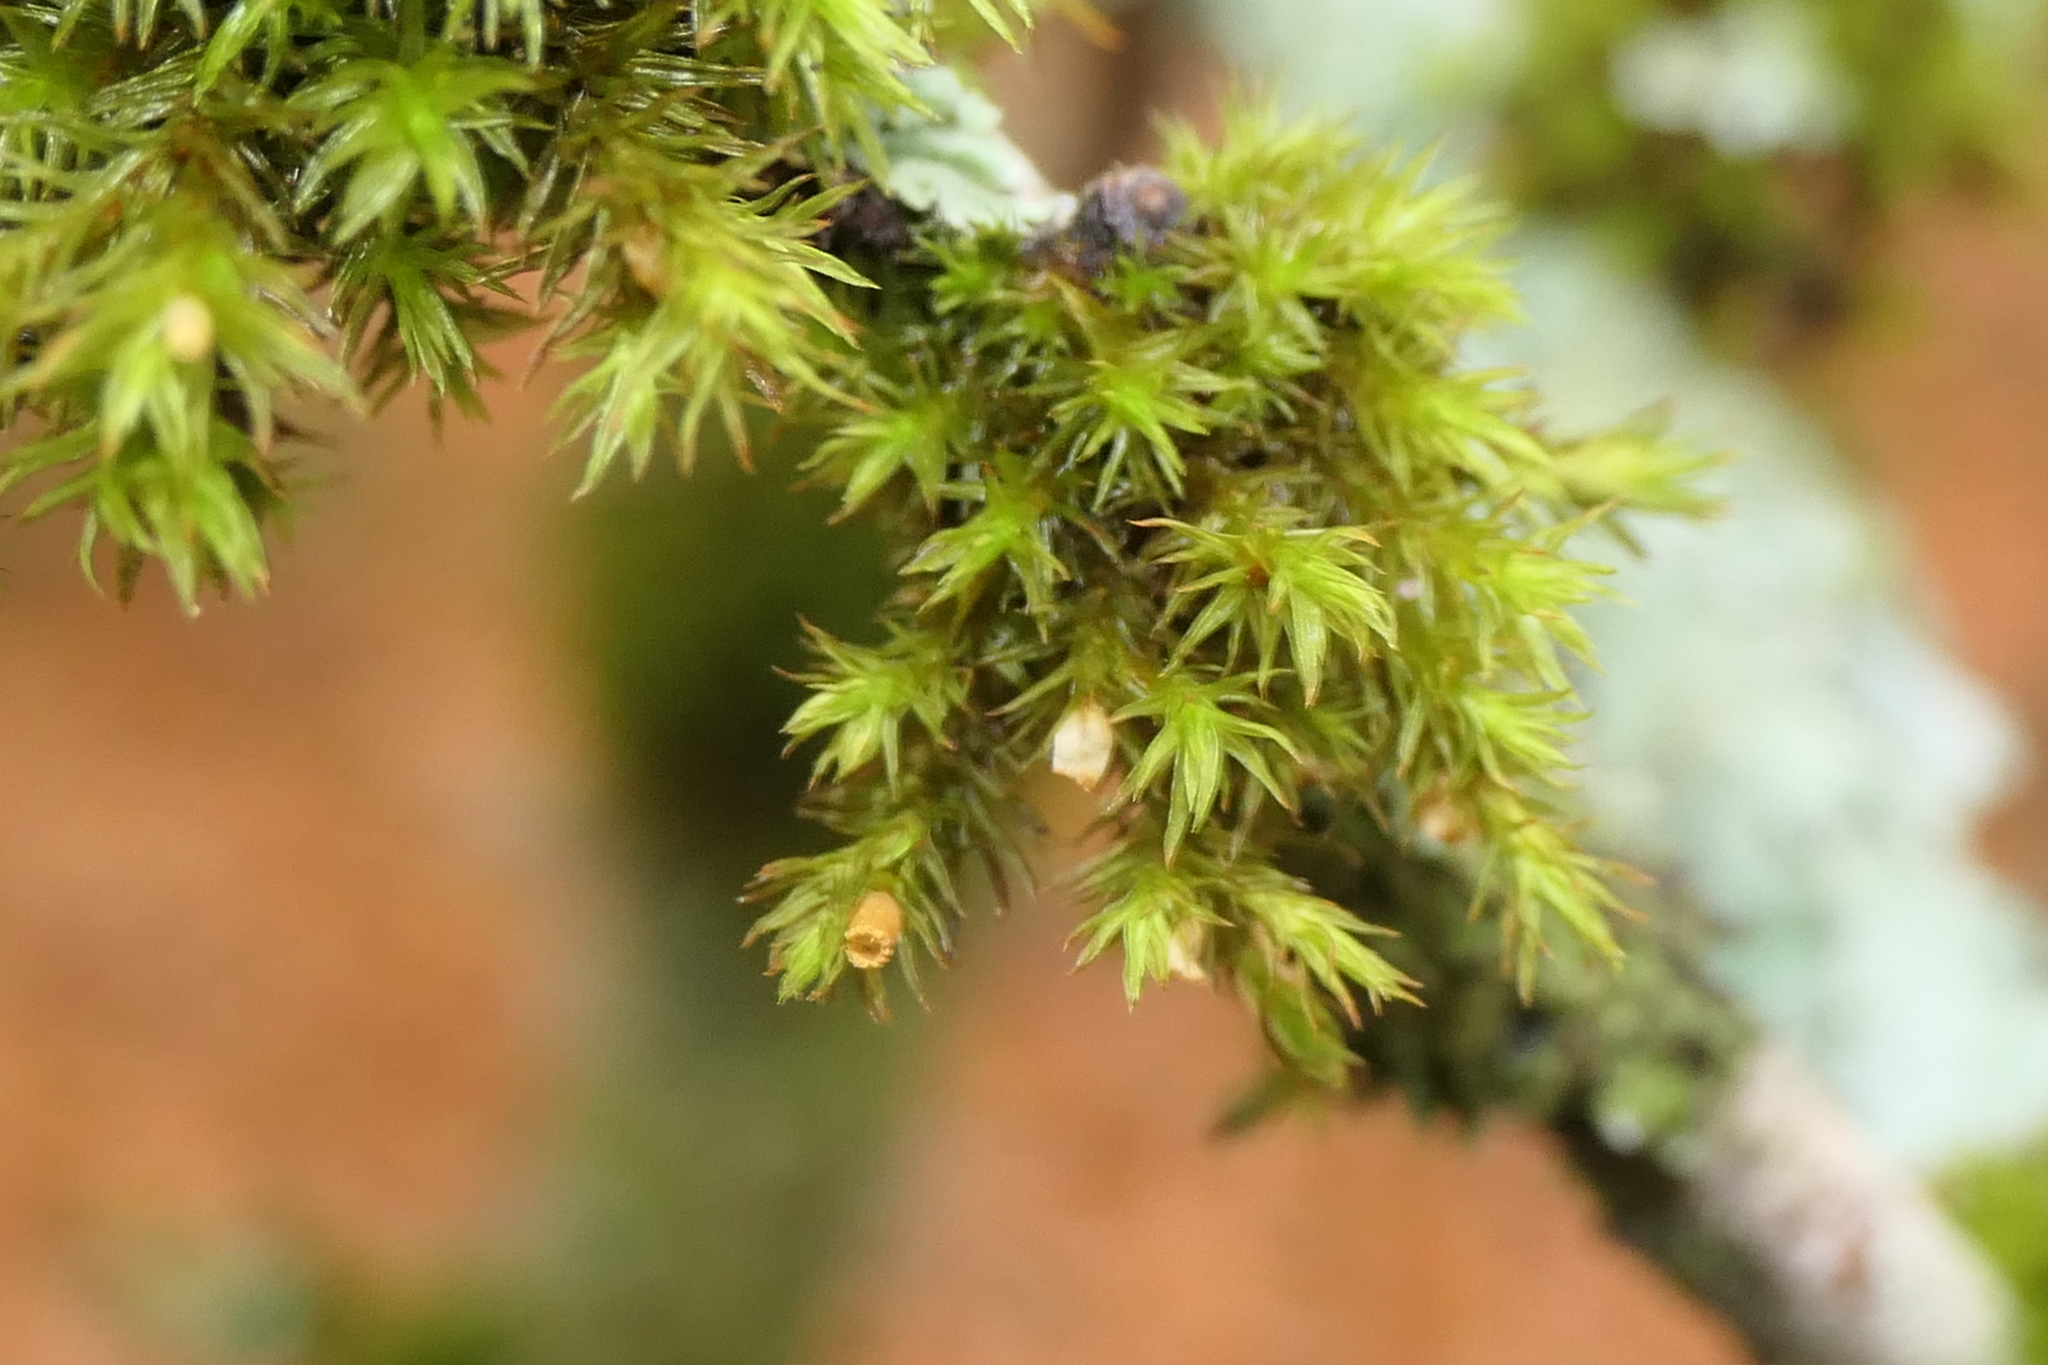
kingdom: Plantae
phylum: Bryophyta
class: Bryopsida
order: Orthotrichales
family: Orthotrichaceae
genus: Lewinskya
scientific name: Lewinskya striata
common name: Shaw's bristle-moss
